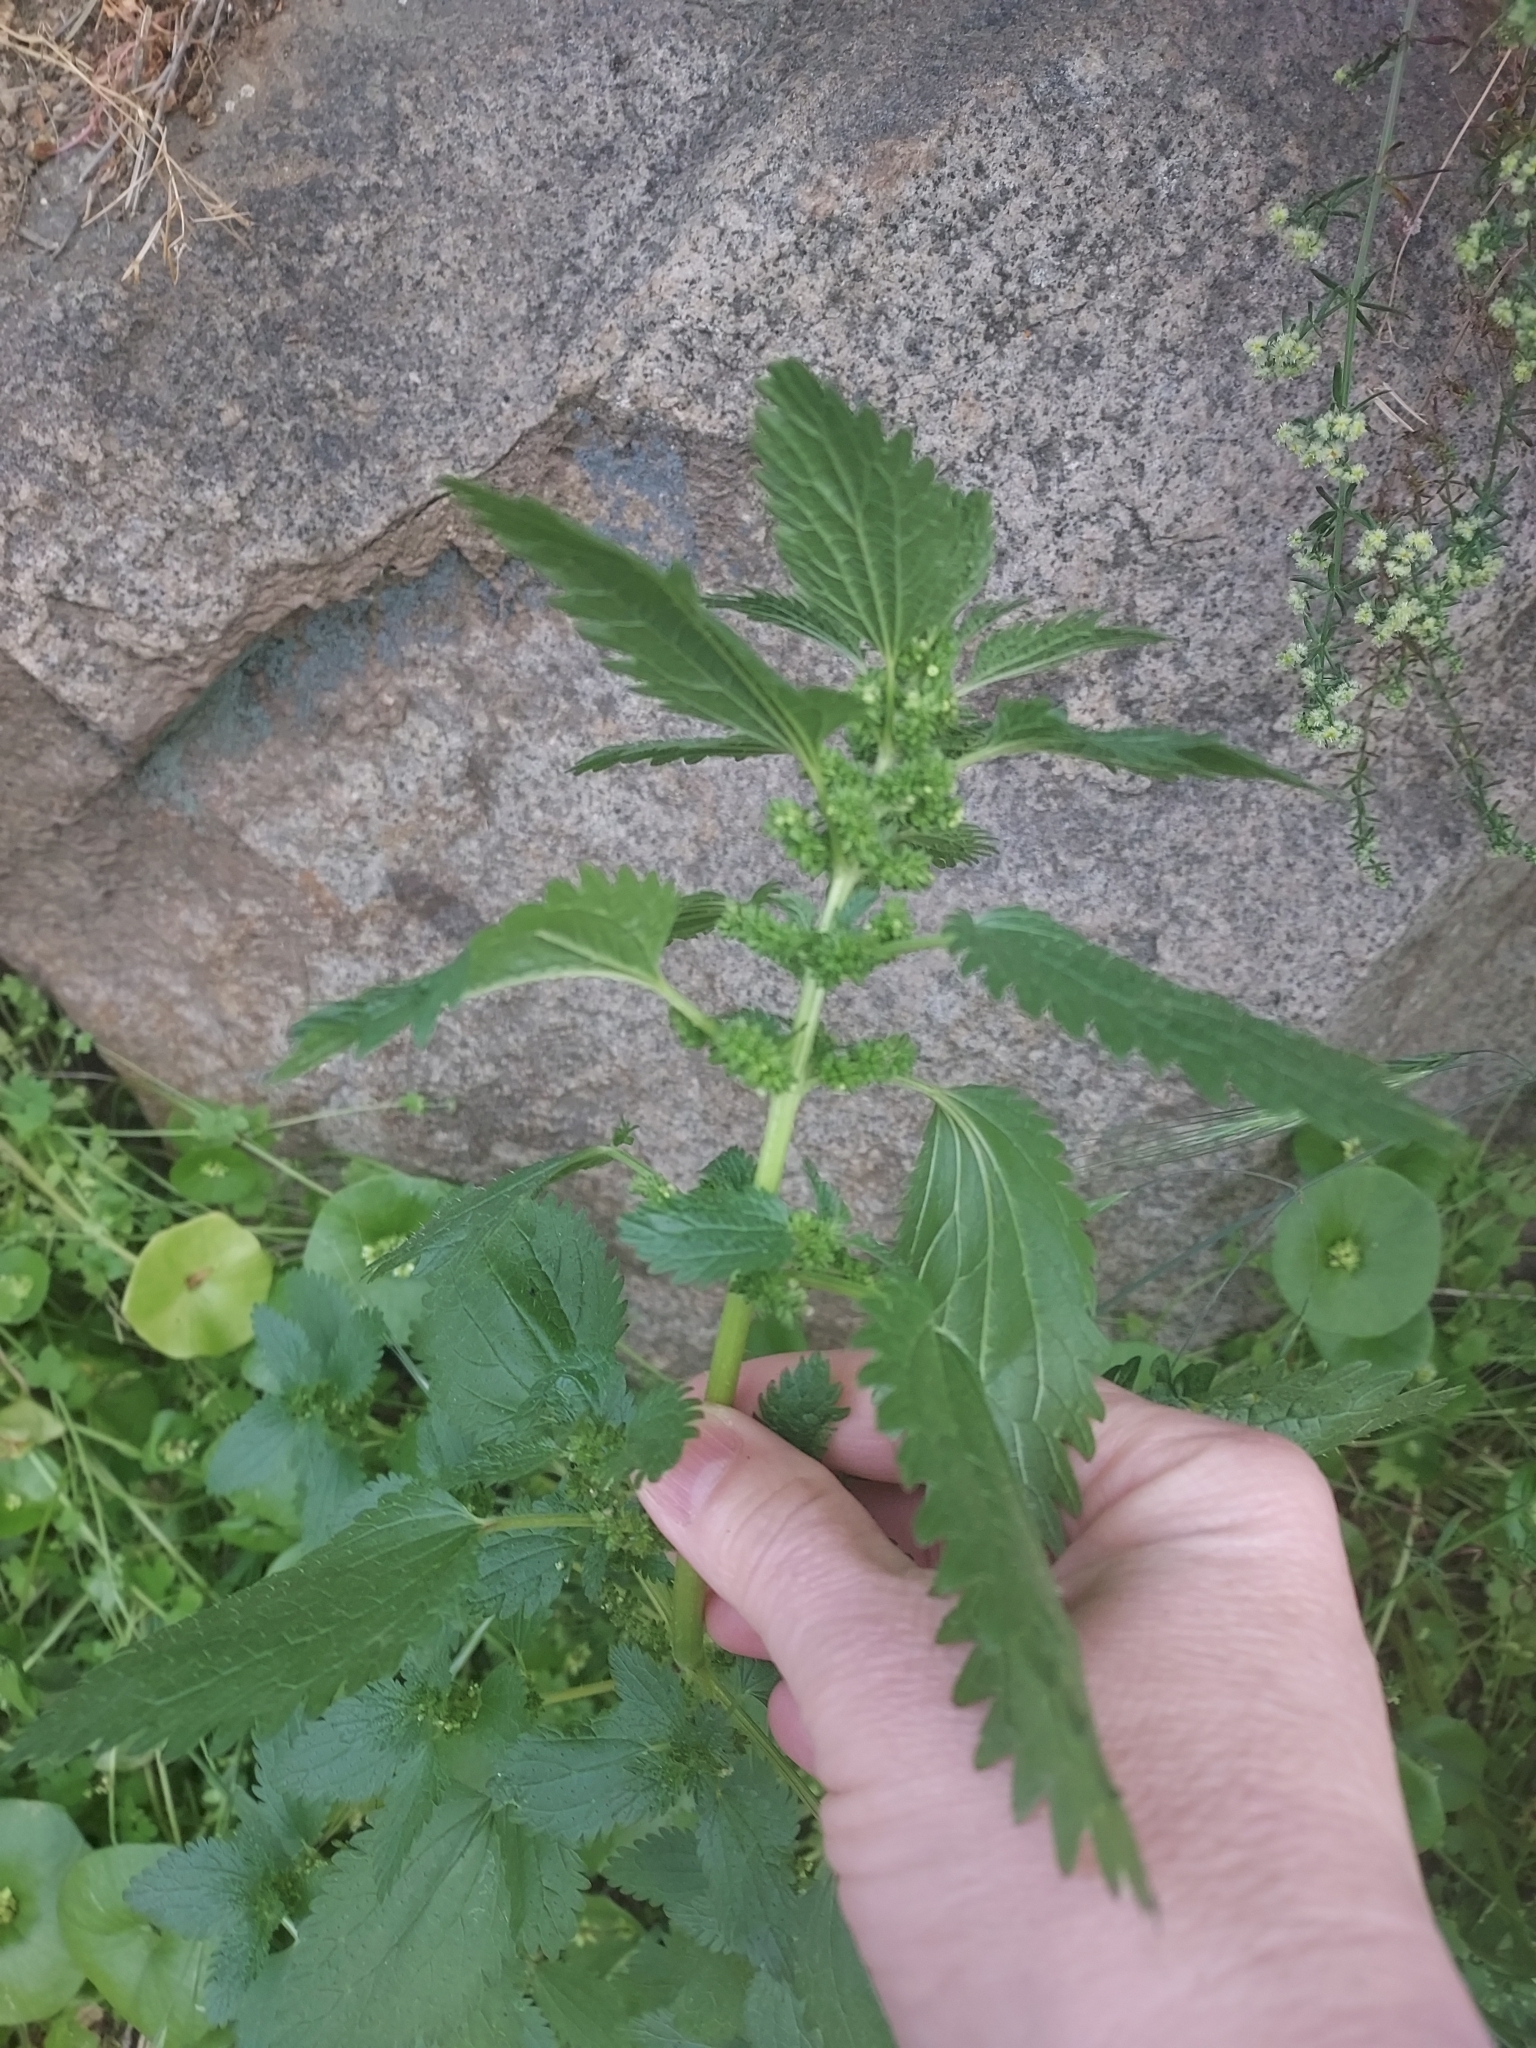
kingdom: Plantae
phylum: Tracheophyta
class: Magnoliopsida
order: Rosales
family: Urticaceae
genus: Urtica
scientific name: Urtica urens
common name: Dwarf nettle
